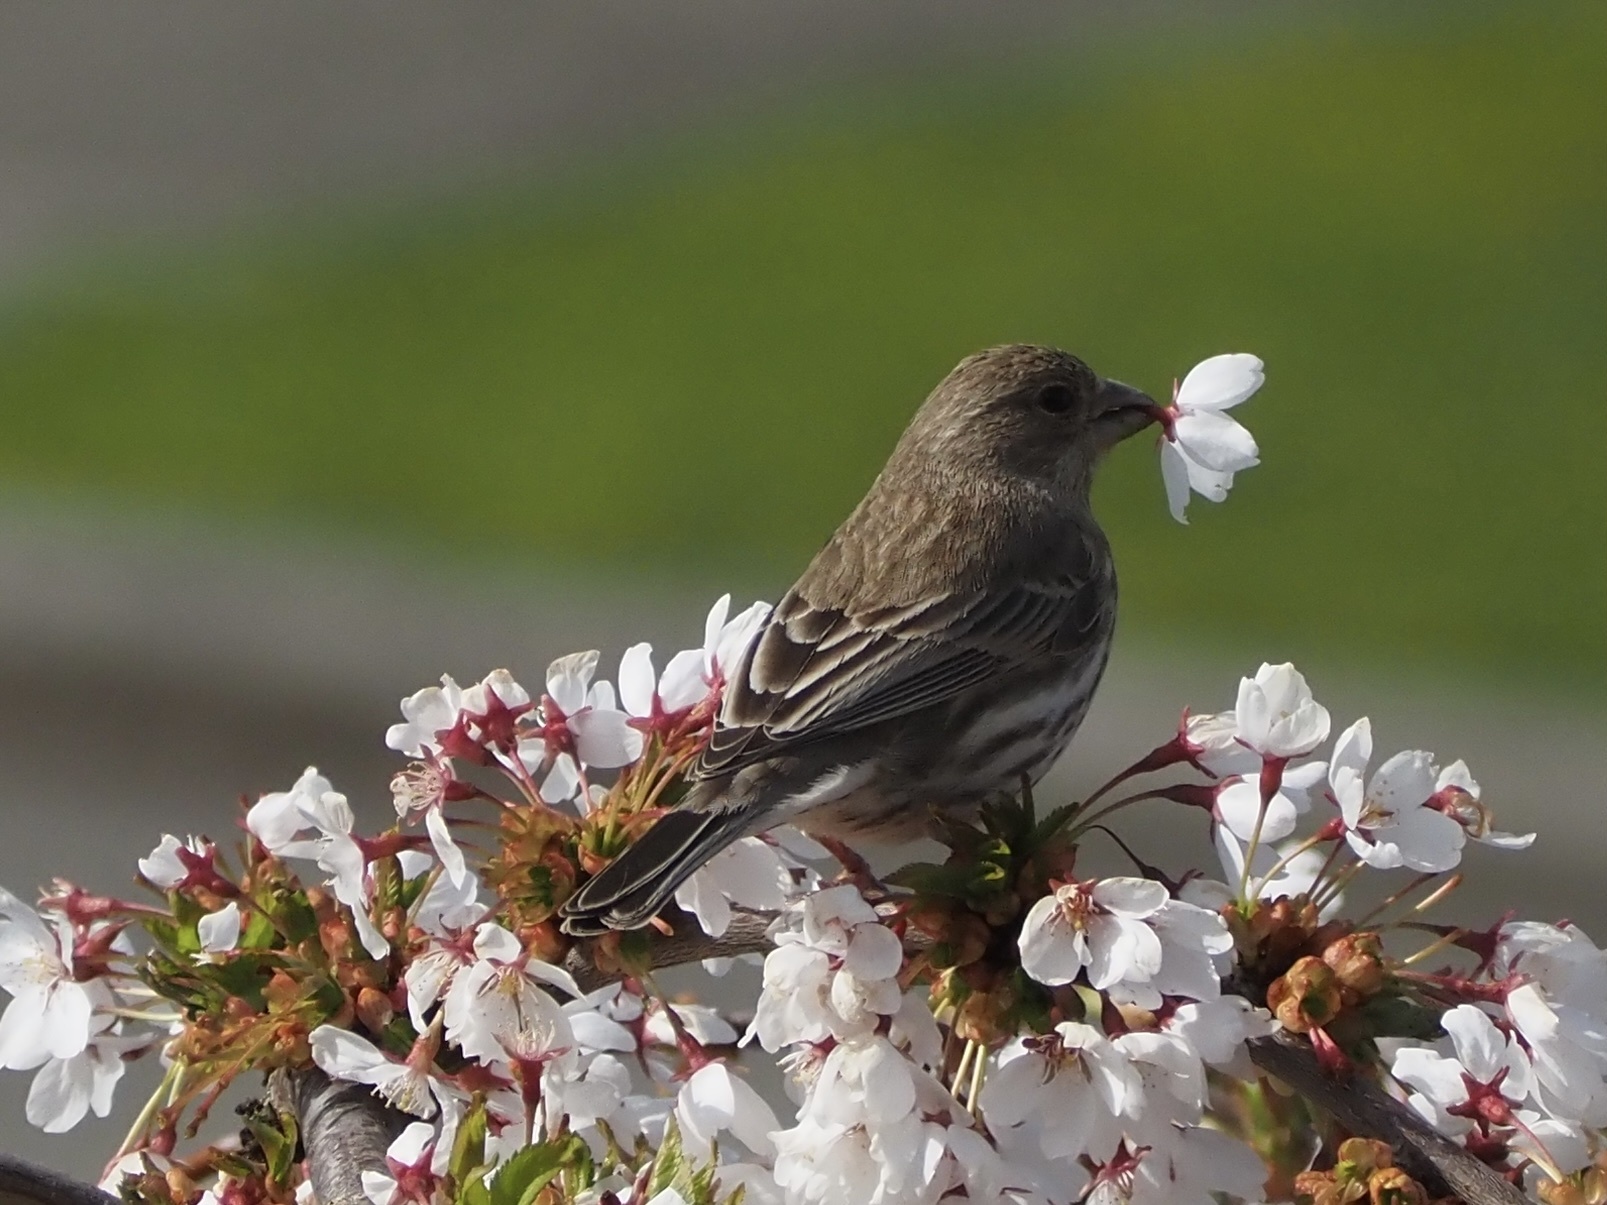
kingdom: Animalia
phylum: Chordata
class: Aves
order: Passeriformes
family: Fringillidae
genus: Haemorhous
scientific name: Haemorhous mexicanus
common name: House finch
